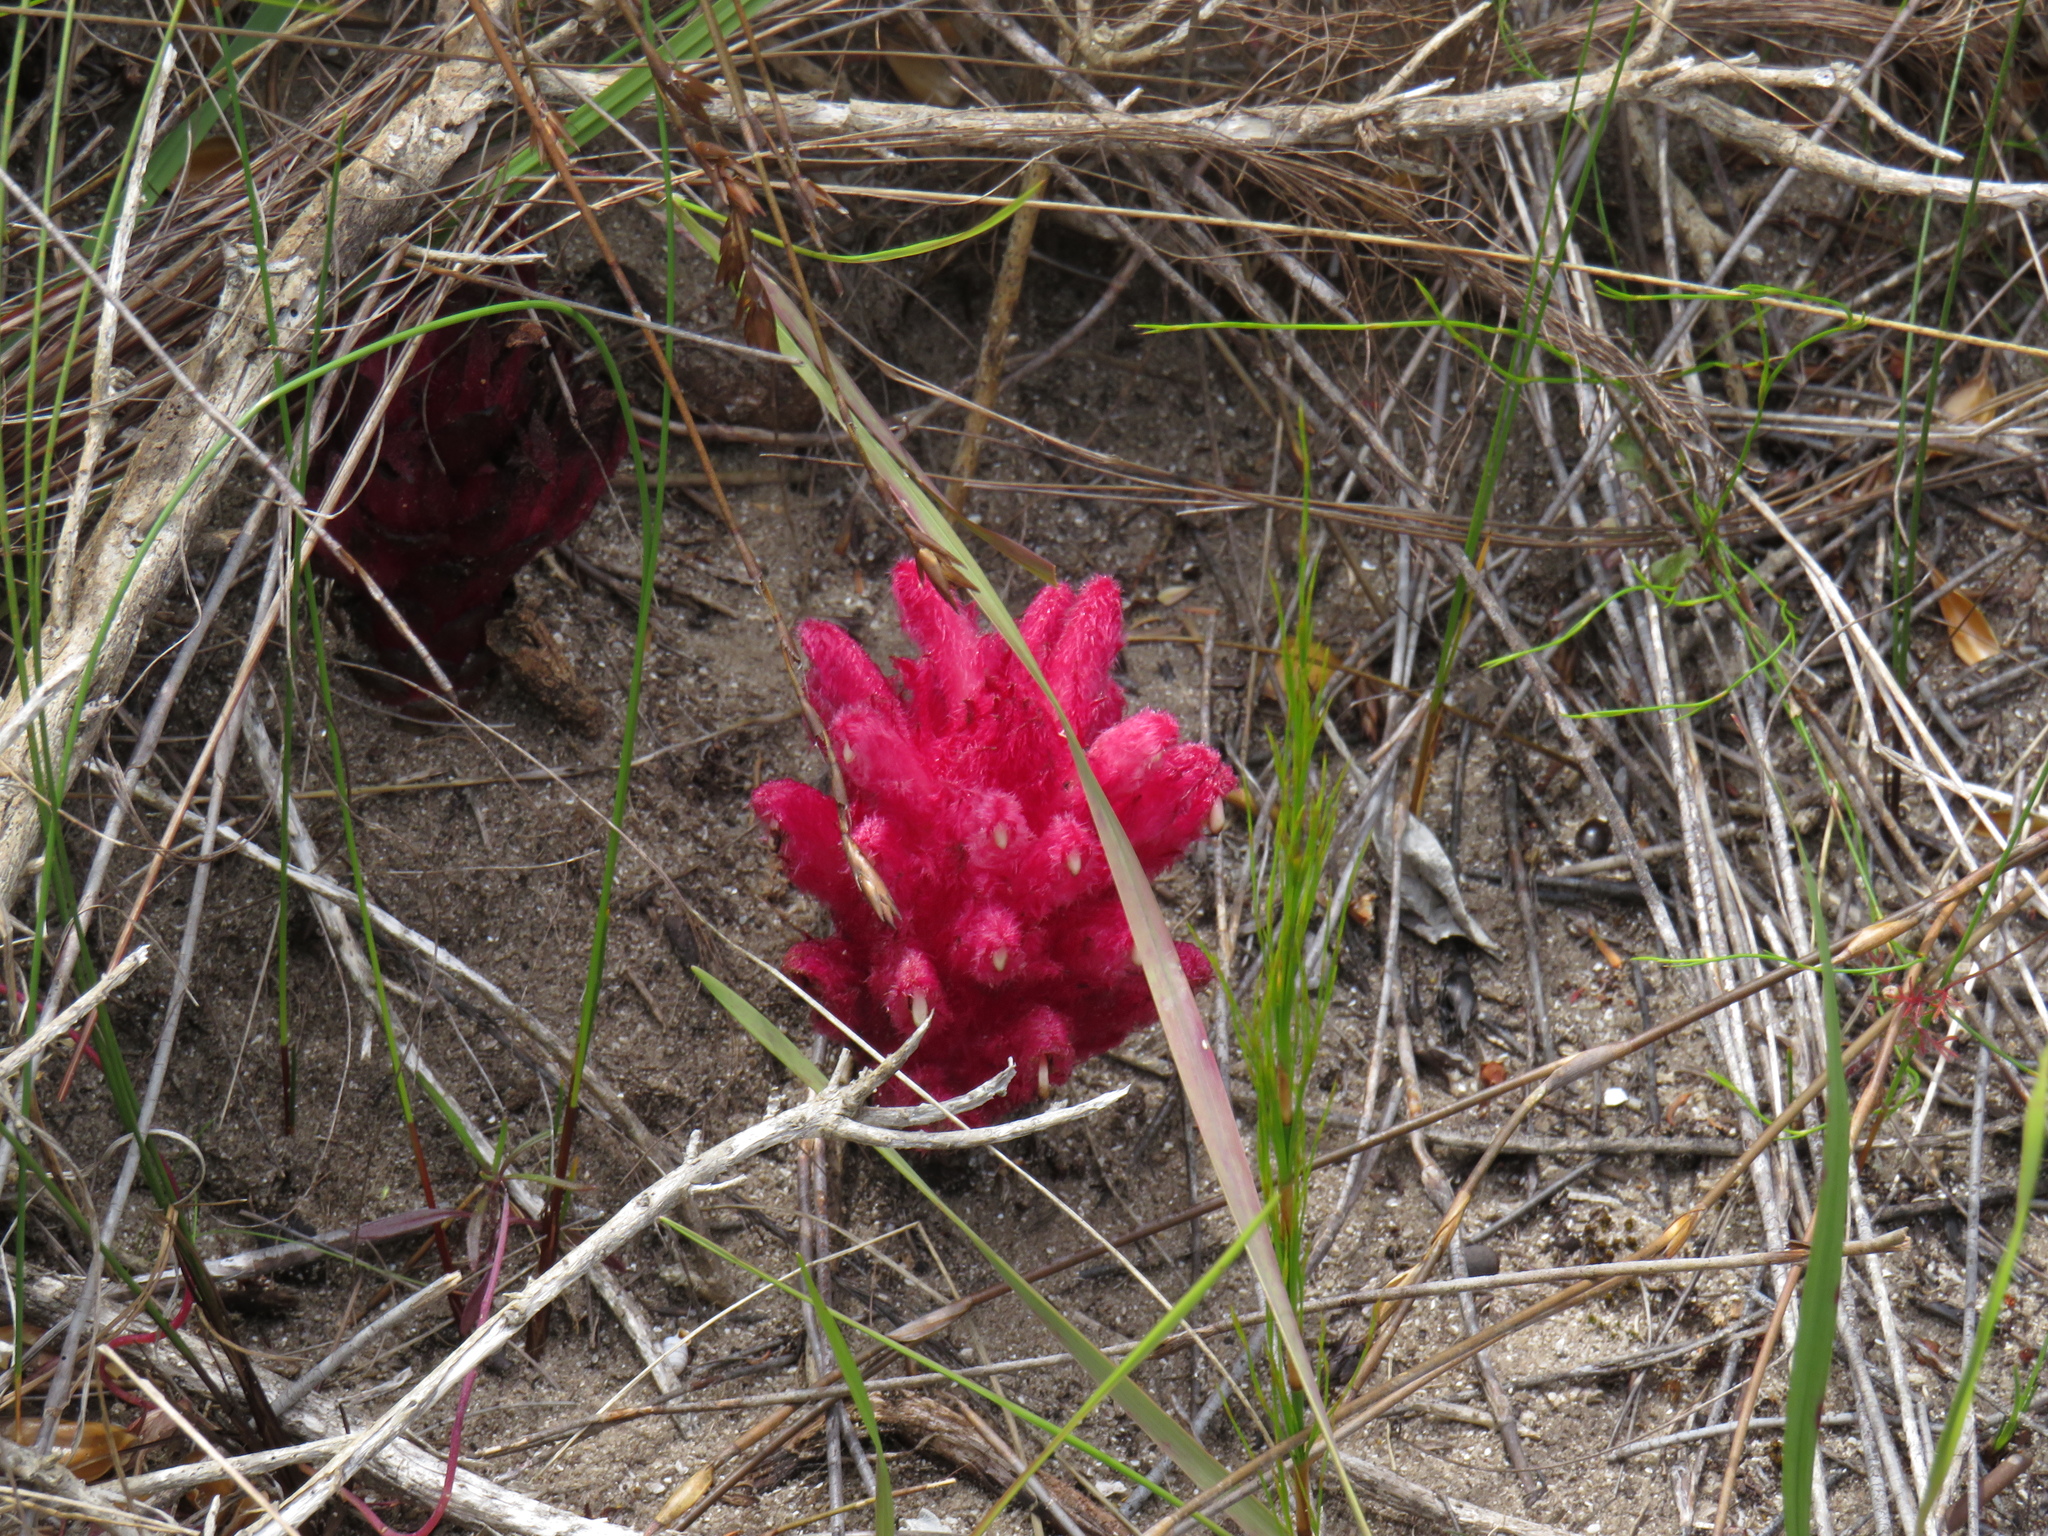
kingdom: Plantae
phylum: Tracheophyta
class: Magnoliopsida
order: Lamiales
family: Orobanchaceae
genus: Hyobanche
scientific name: Hyobanche sanguinea
